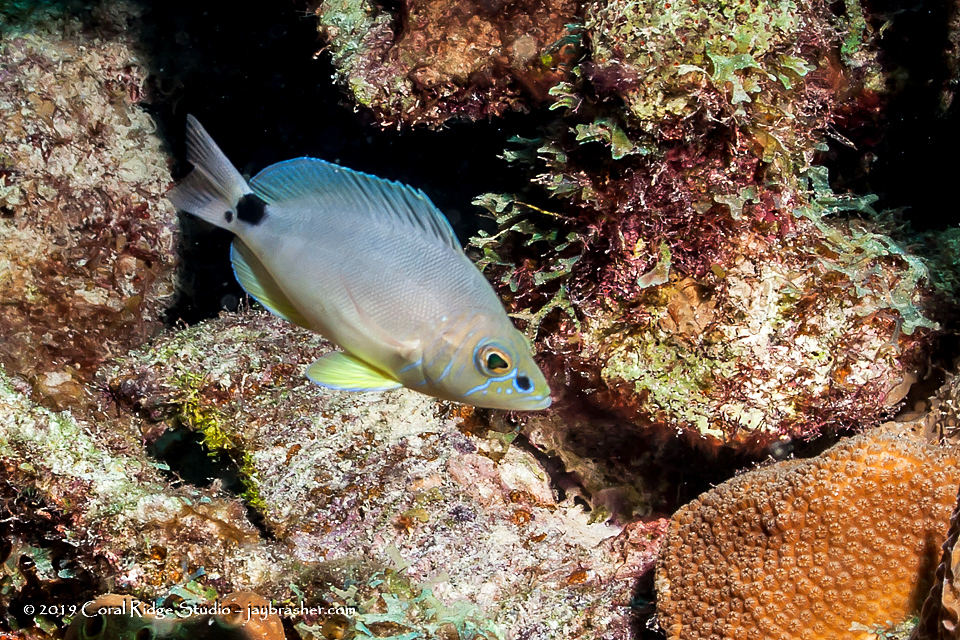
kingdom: Animalia
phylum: Chordata
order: Perciformes
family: Serranidae
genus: Hypoplectrus
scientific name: Hypoplectrus unicolor
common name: Butter hamlet
